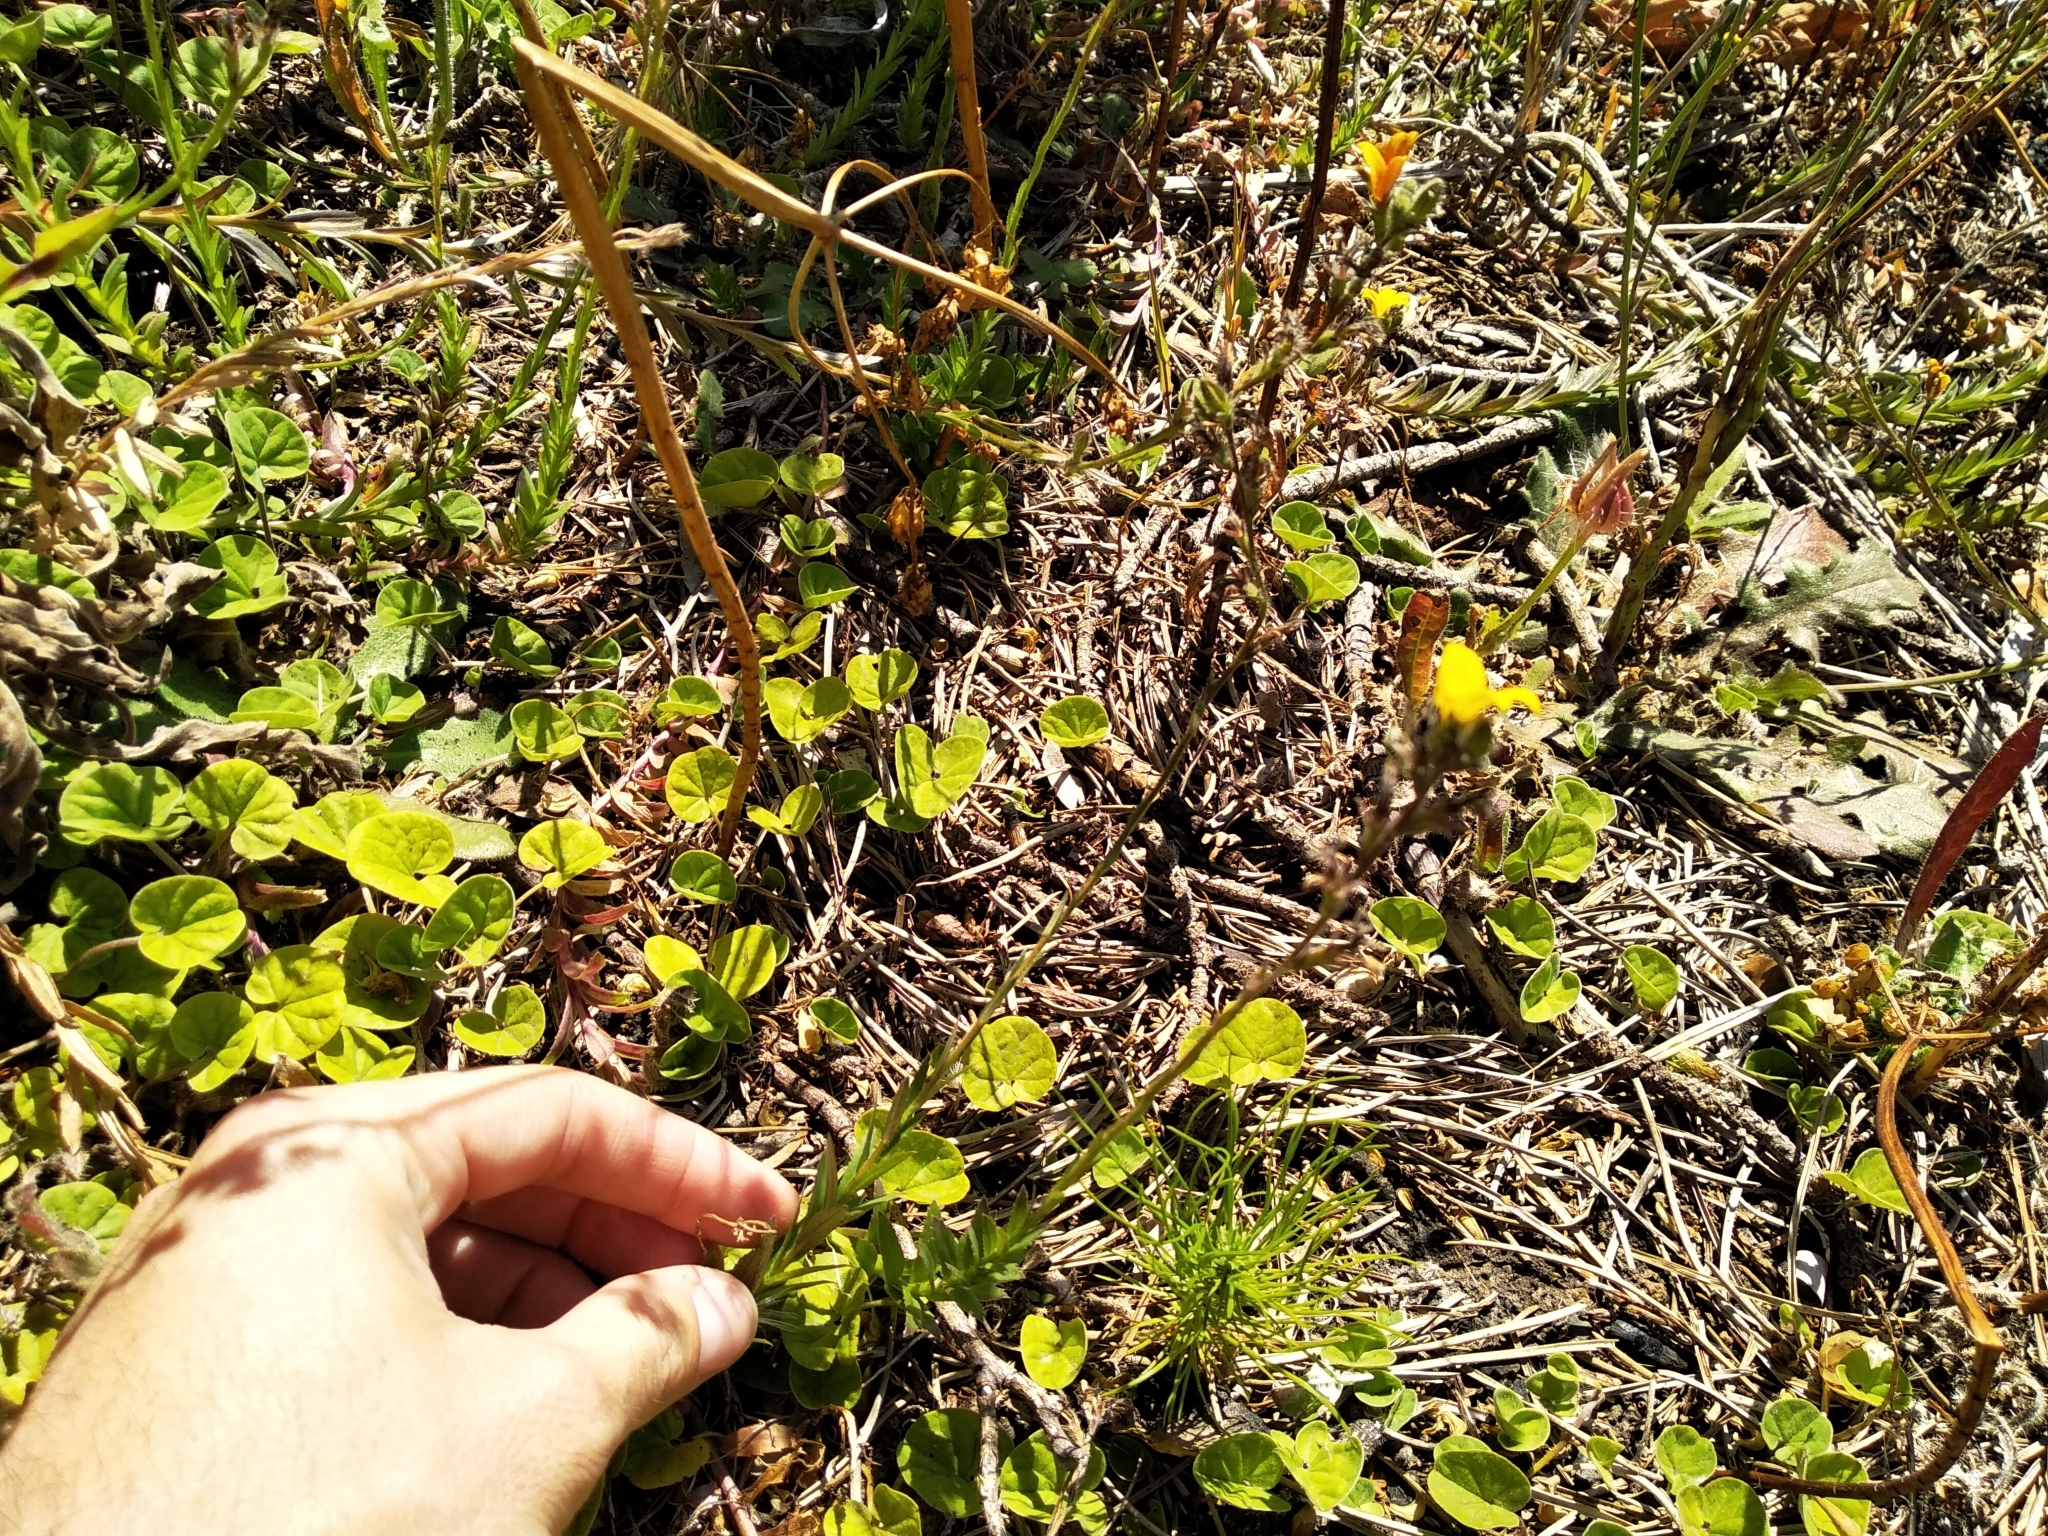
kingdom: Plantae
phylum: Tracheophyta
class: Magnoliopsida
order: Asterales
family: Campanulaceae
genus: Monopsis
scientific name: Monopsis lutea
